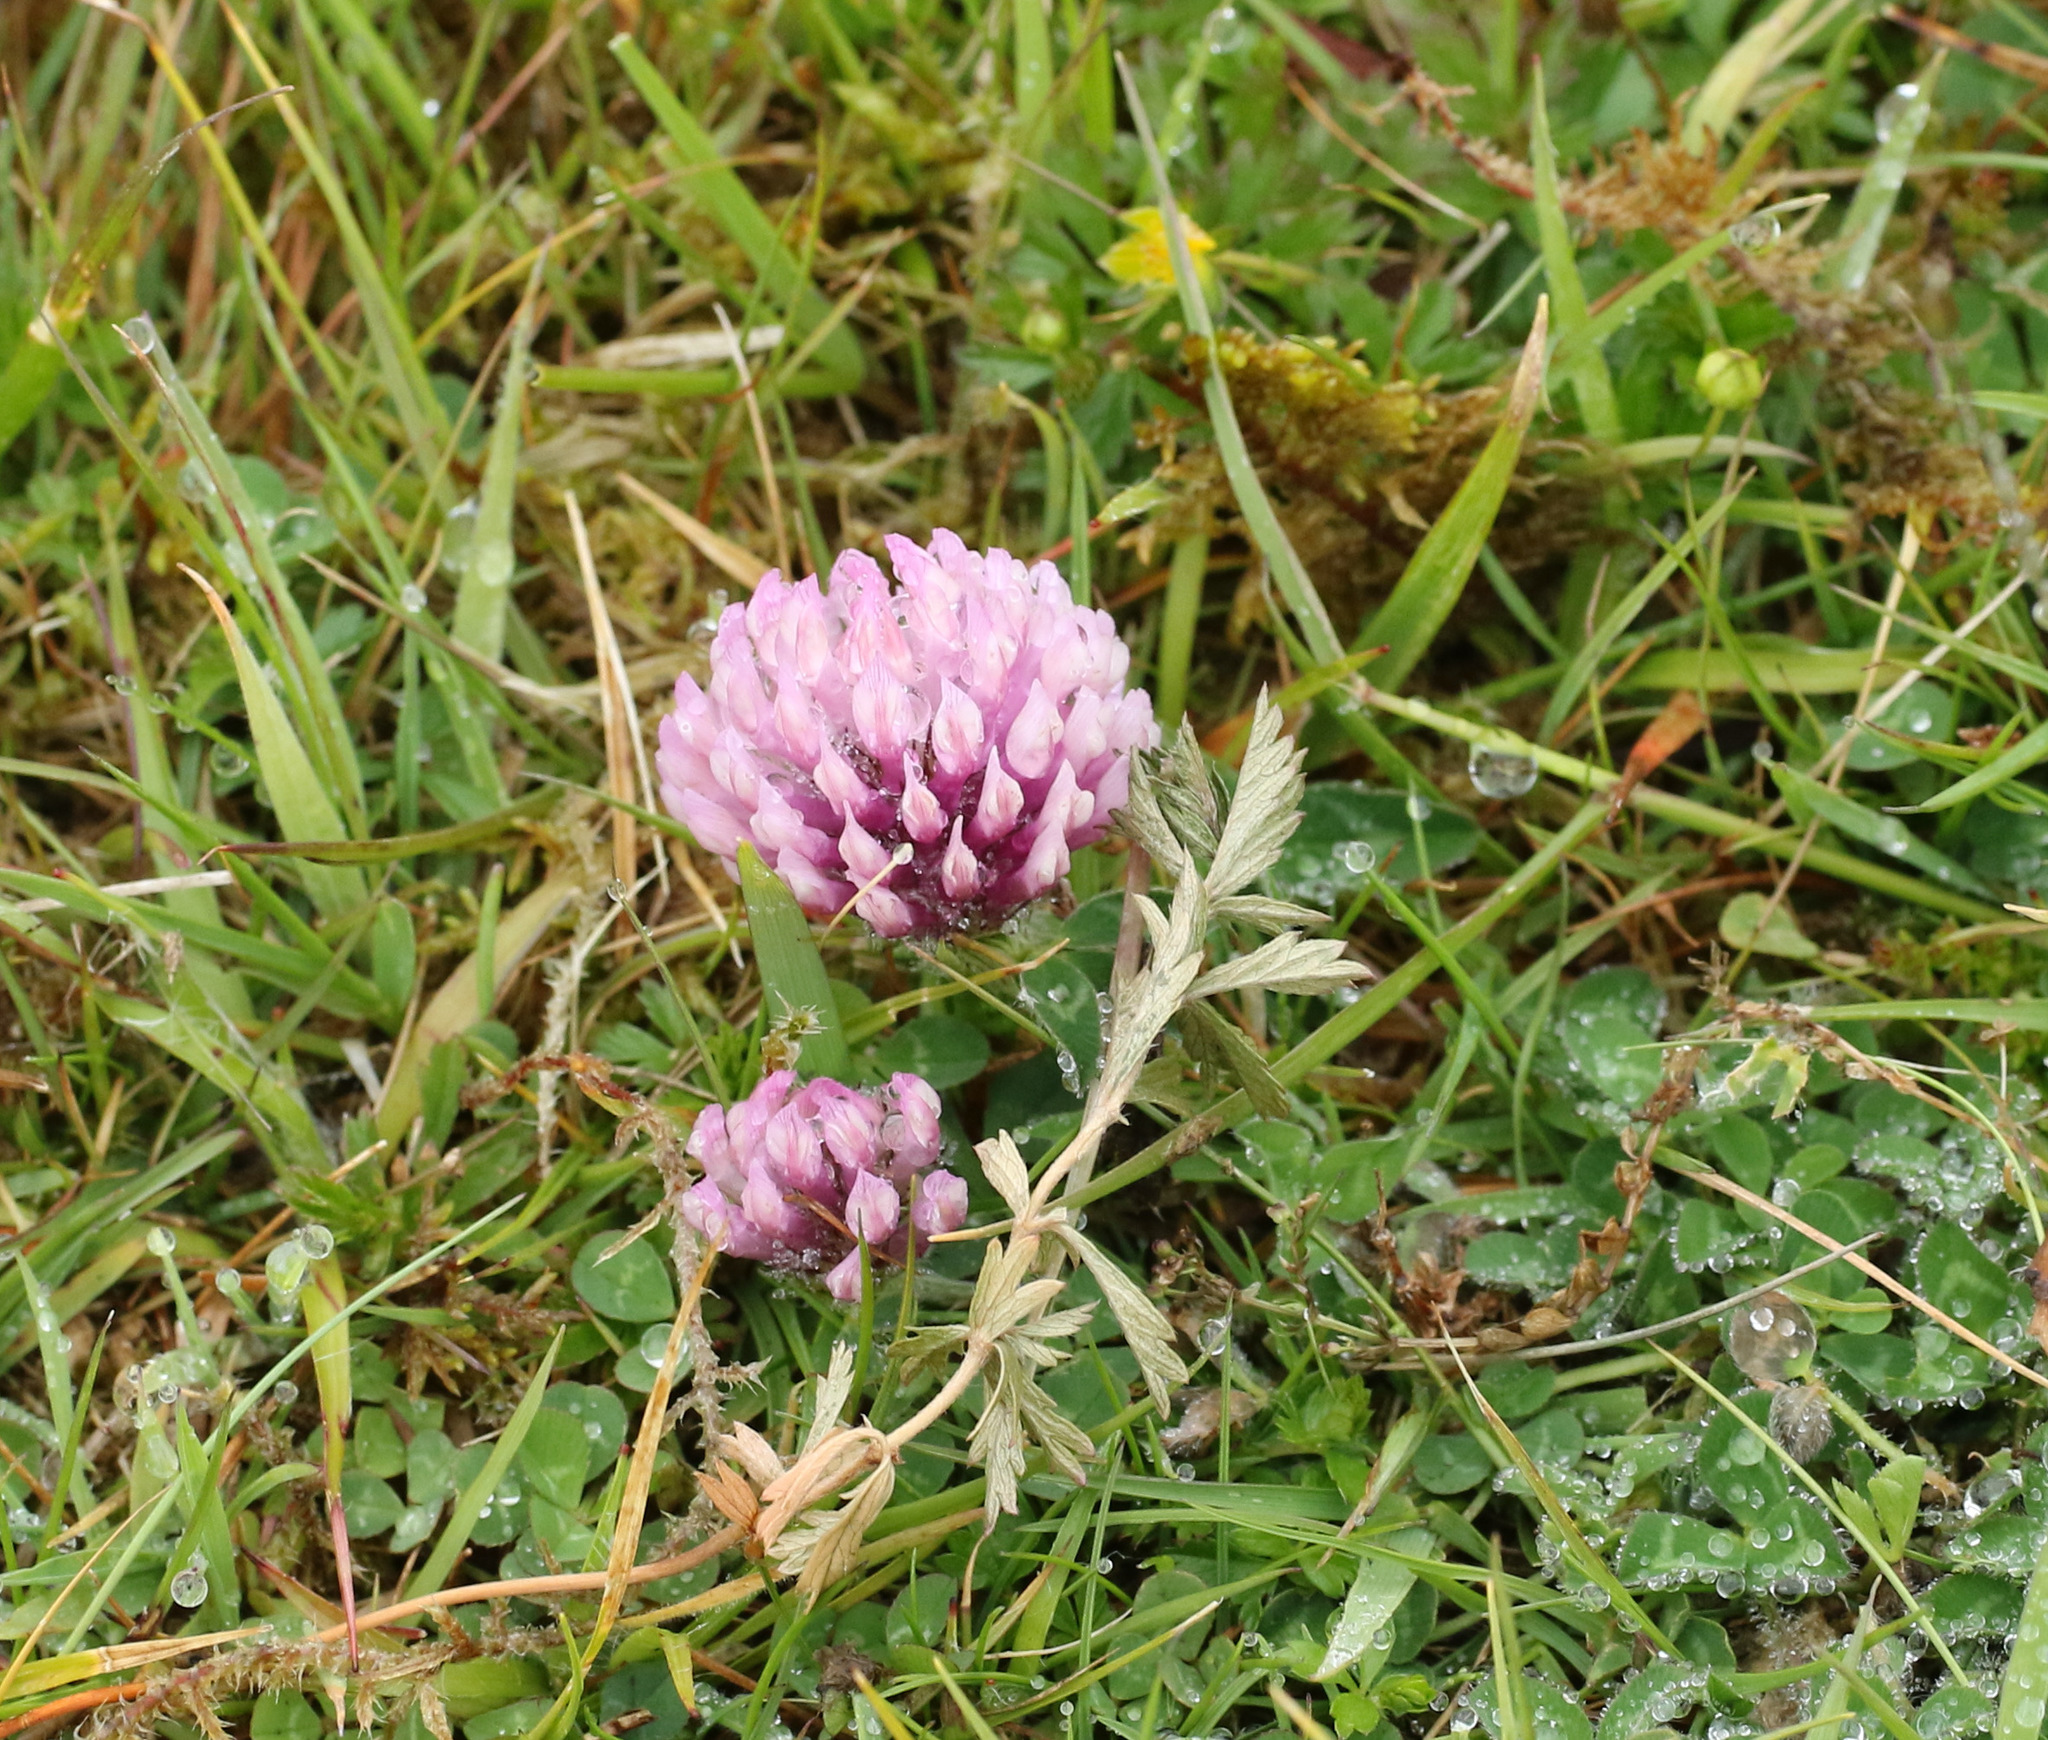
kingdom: Plantae
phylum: Tracheophyta
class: Magnoliopsida
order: Fabales
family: Fabaceae
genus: Trifolium
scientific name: Trifolium pratense
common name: Red clover
